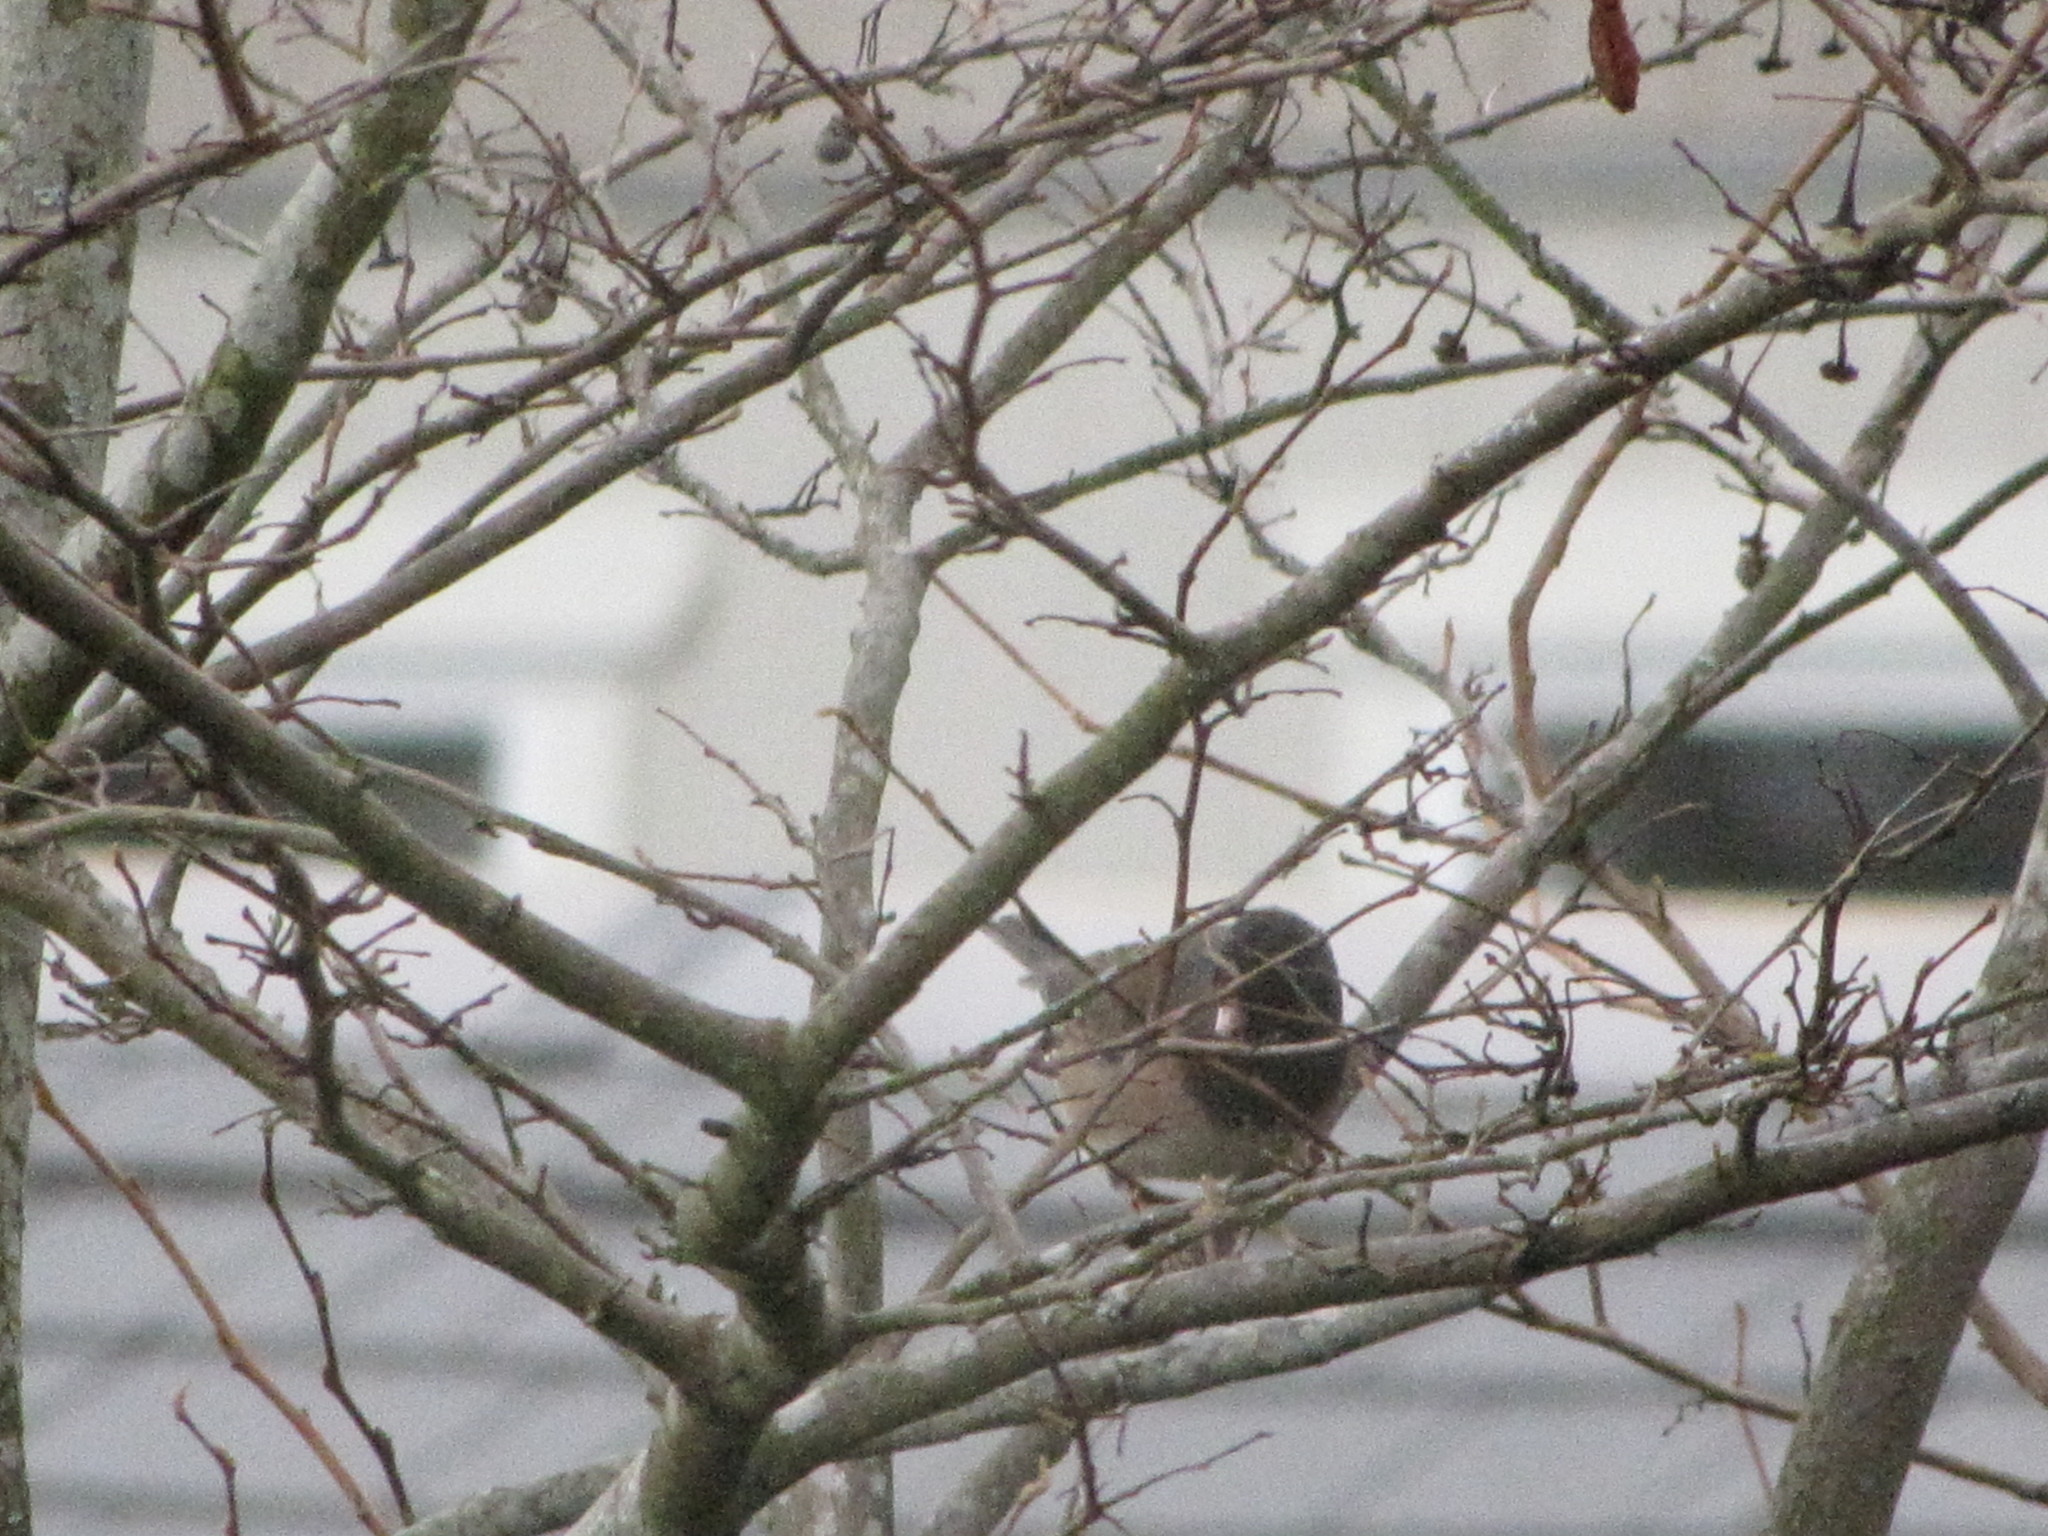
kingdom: Animalia
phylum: Chordata
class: Aves
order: Passeriformes
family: Passerellidae
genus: Junco
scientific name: Junco hyemalis
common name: Dark-eyed junco
